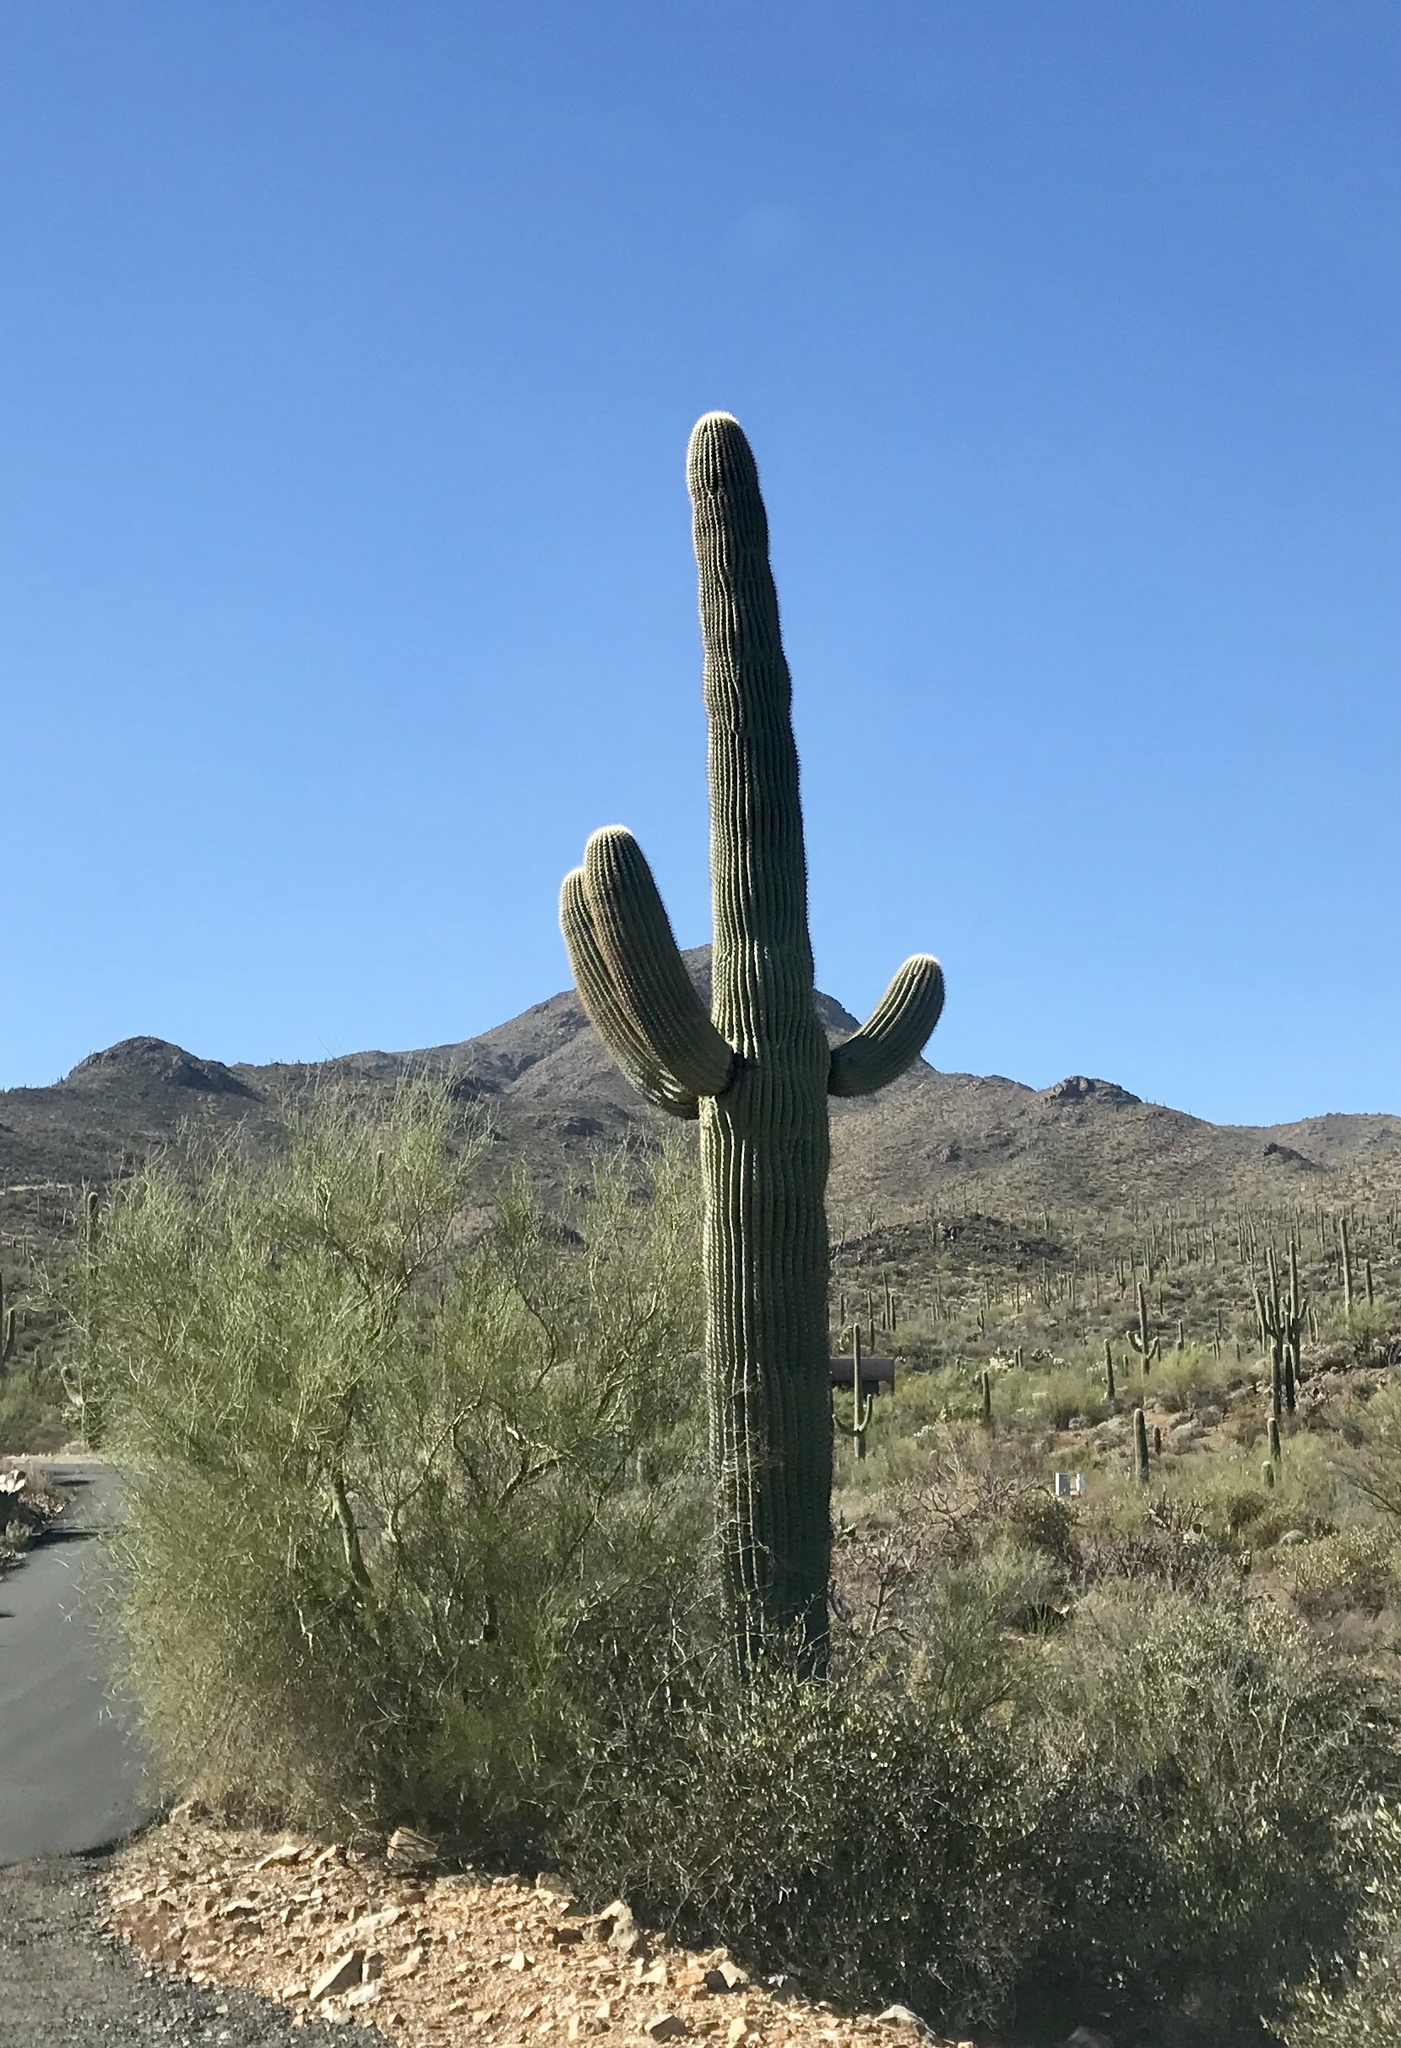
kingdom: Plantae
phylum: Tracheophyta
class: Magnoliopsida
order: Caryophyllales
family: Cactaceae
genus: Carnegiea
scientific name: Carnegiea gigantea
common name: Saguaro
